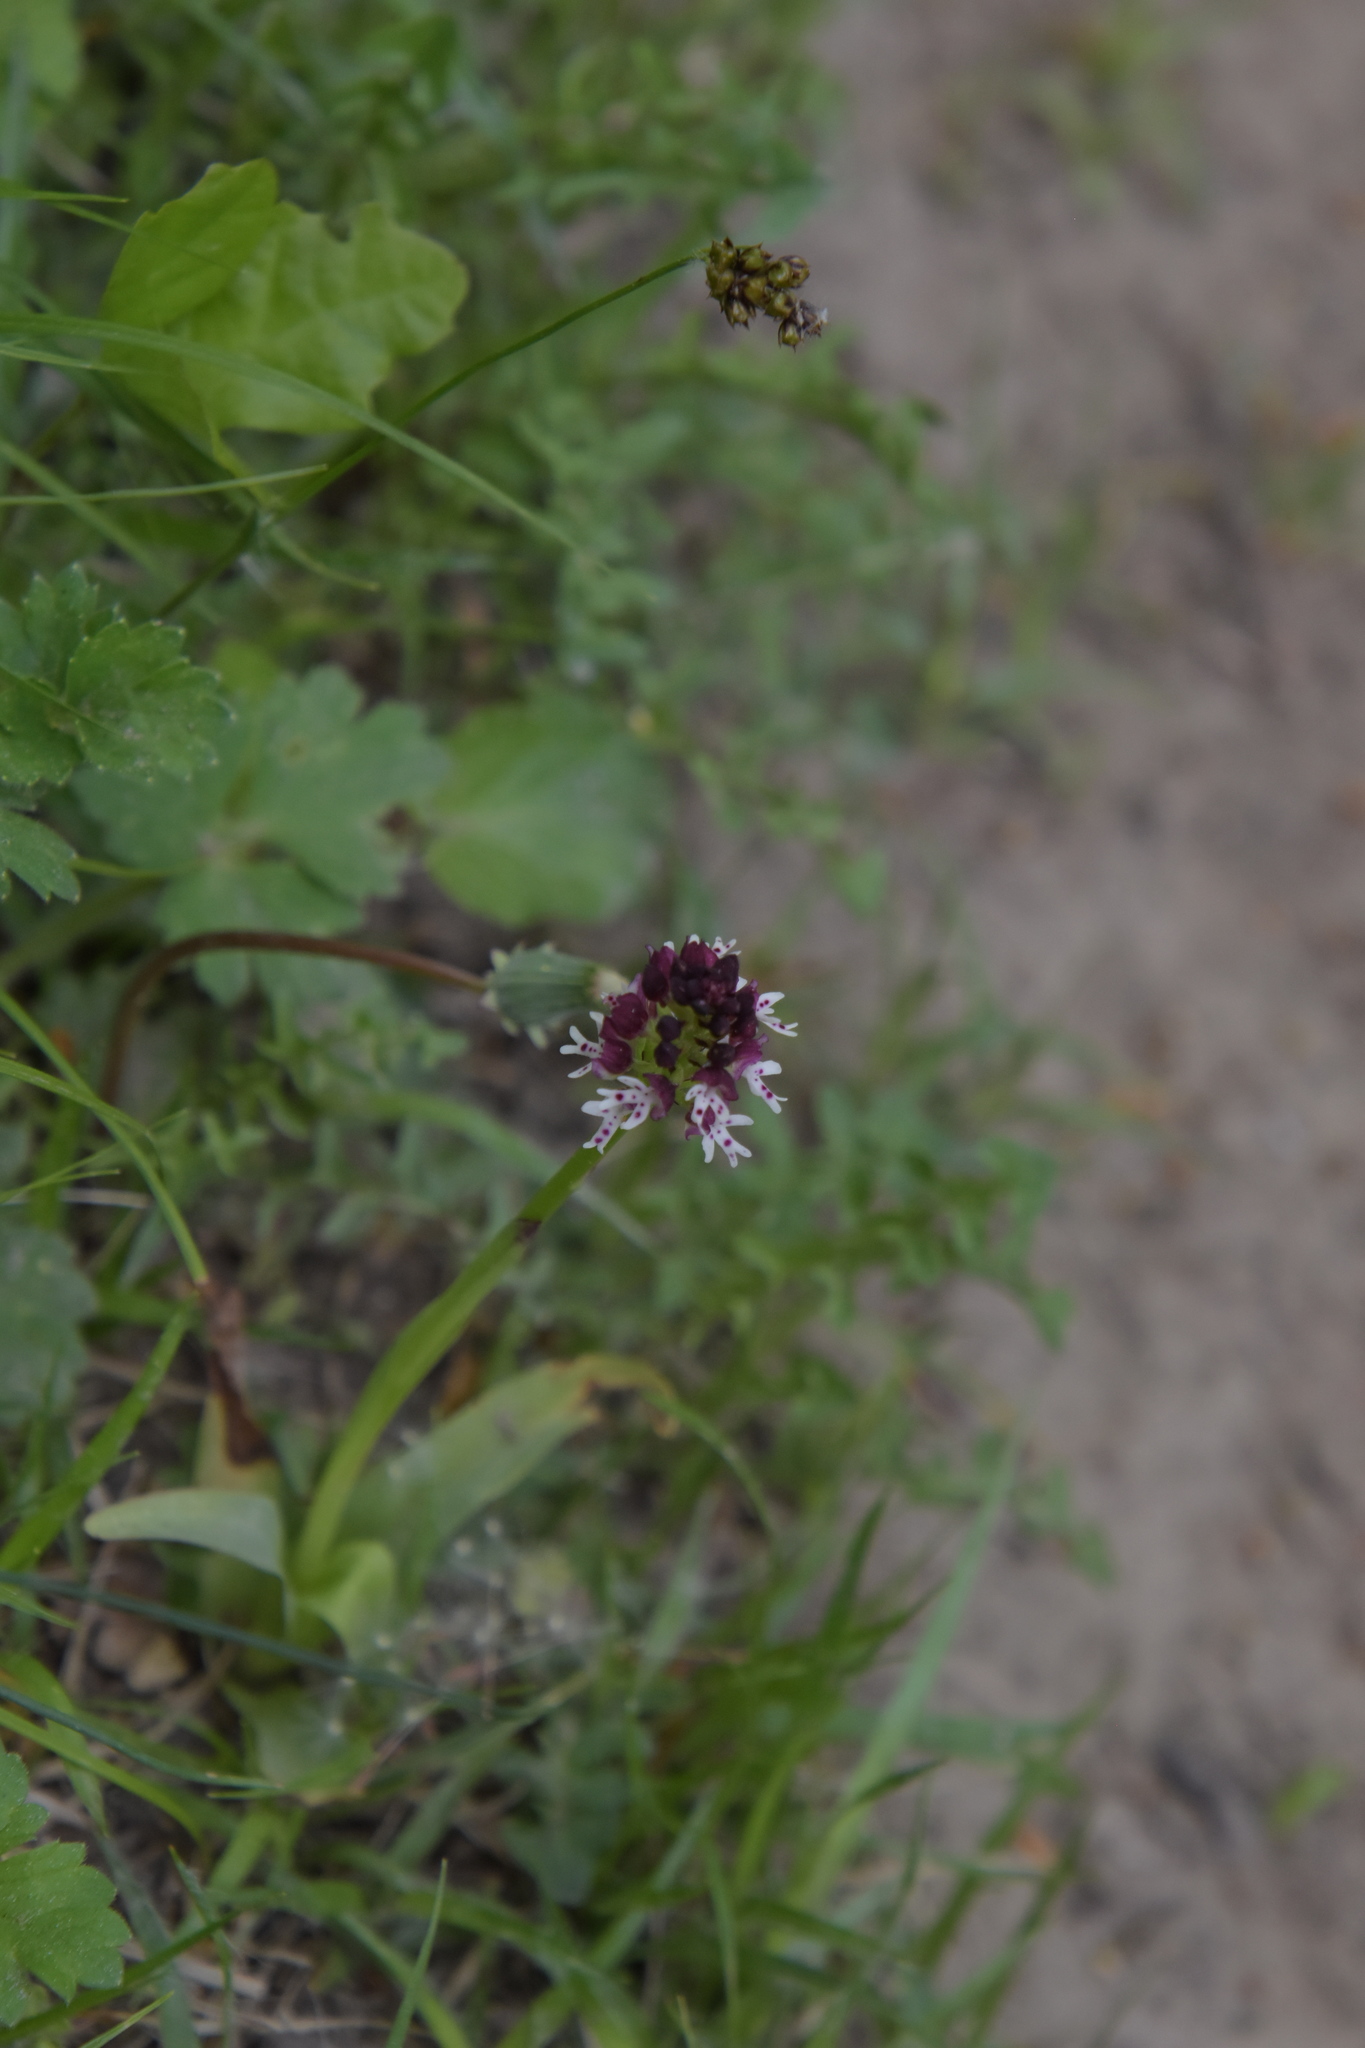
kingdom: Plantae
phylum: Tracheophyta
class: Liliopsida
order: Asparagales
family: Orchidaceae
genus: Neotinea
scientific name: Neotinea ustulata
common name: Burnt orchid
